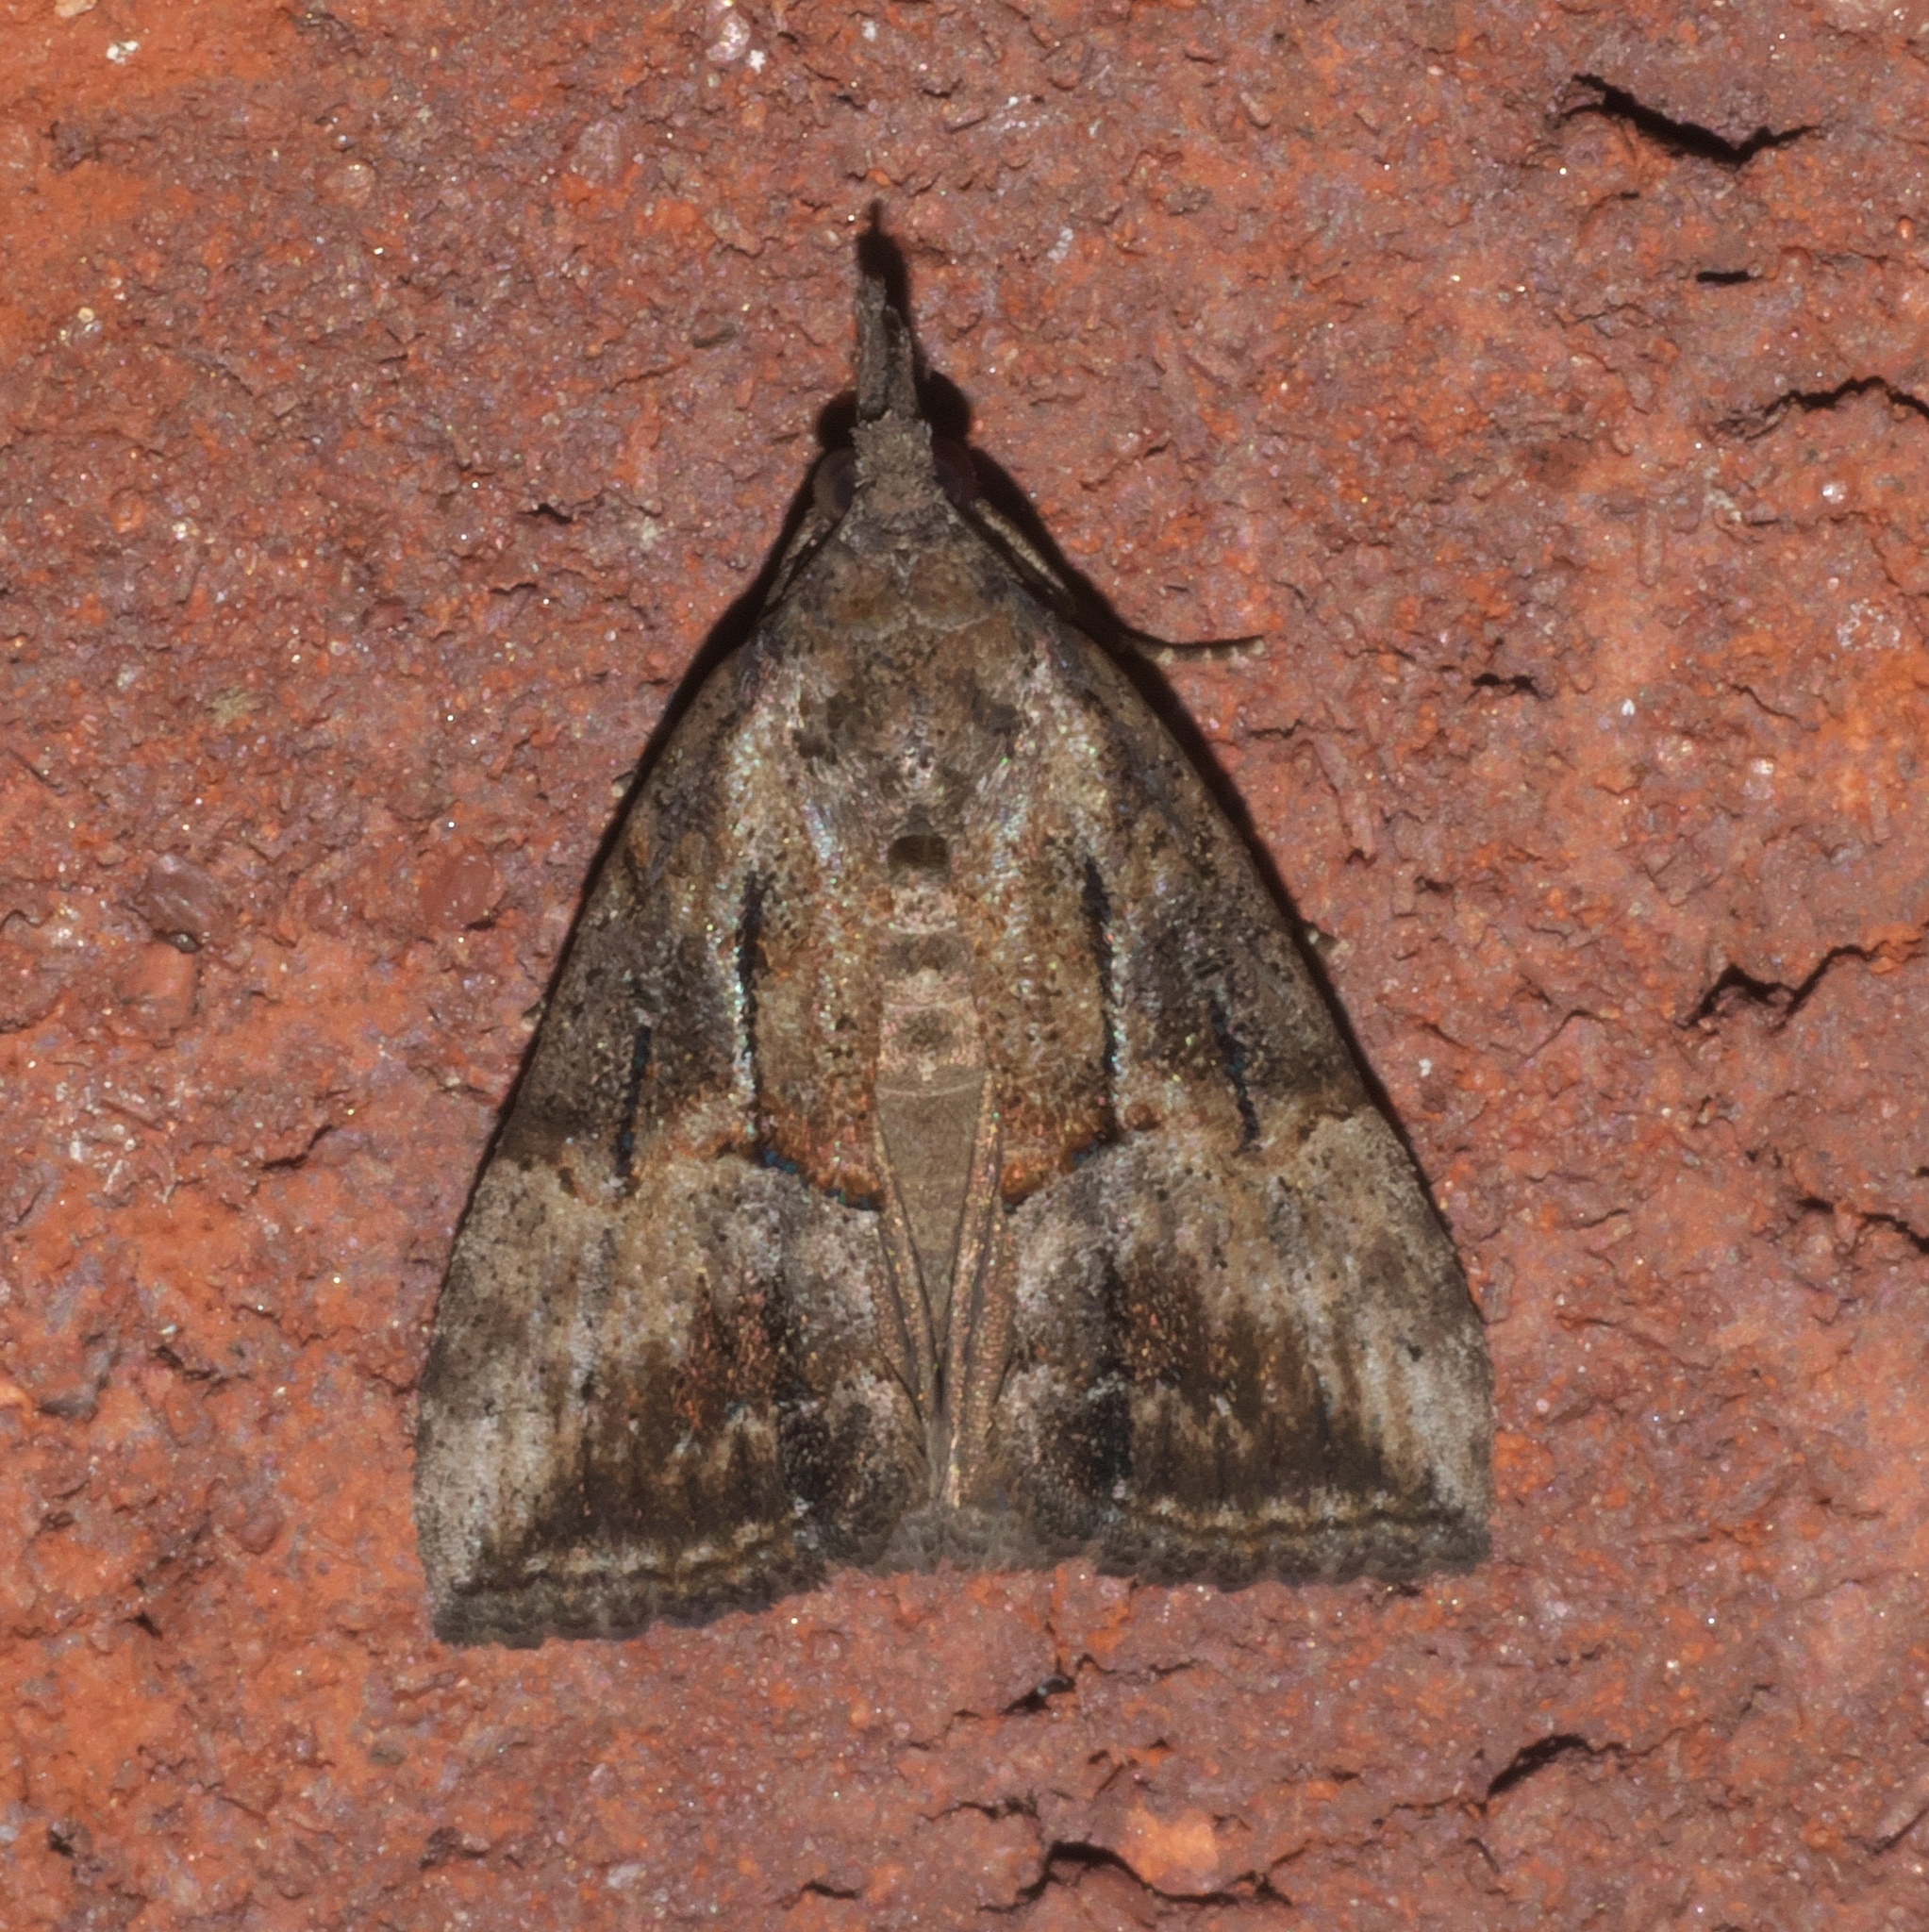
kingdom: Animalia
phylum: Arthropoda
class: Insecta
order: Lepidoptera
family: Erebidae
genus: Hypena
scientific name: Hypena scabra
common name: Green cloverworm
